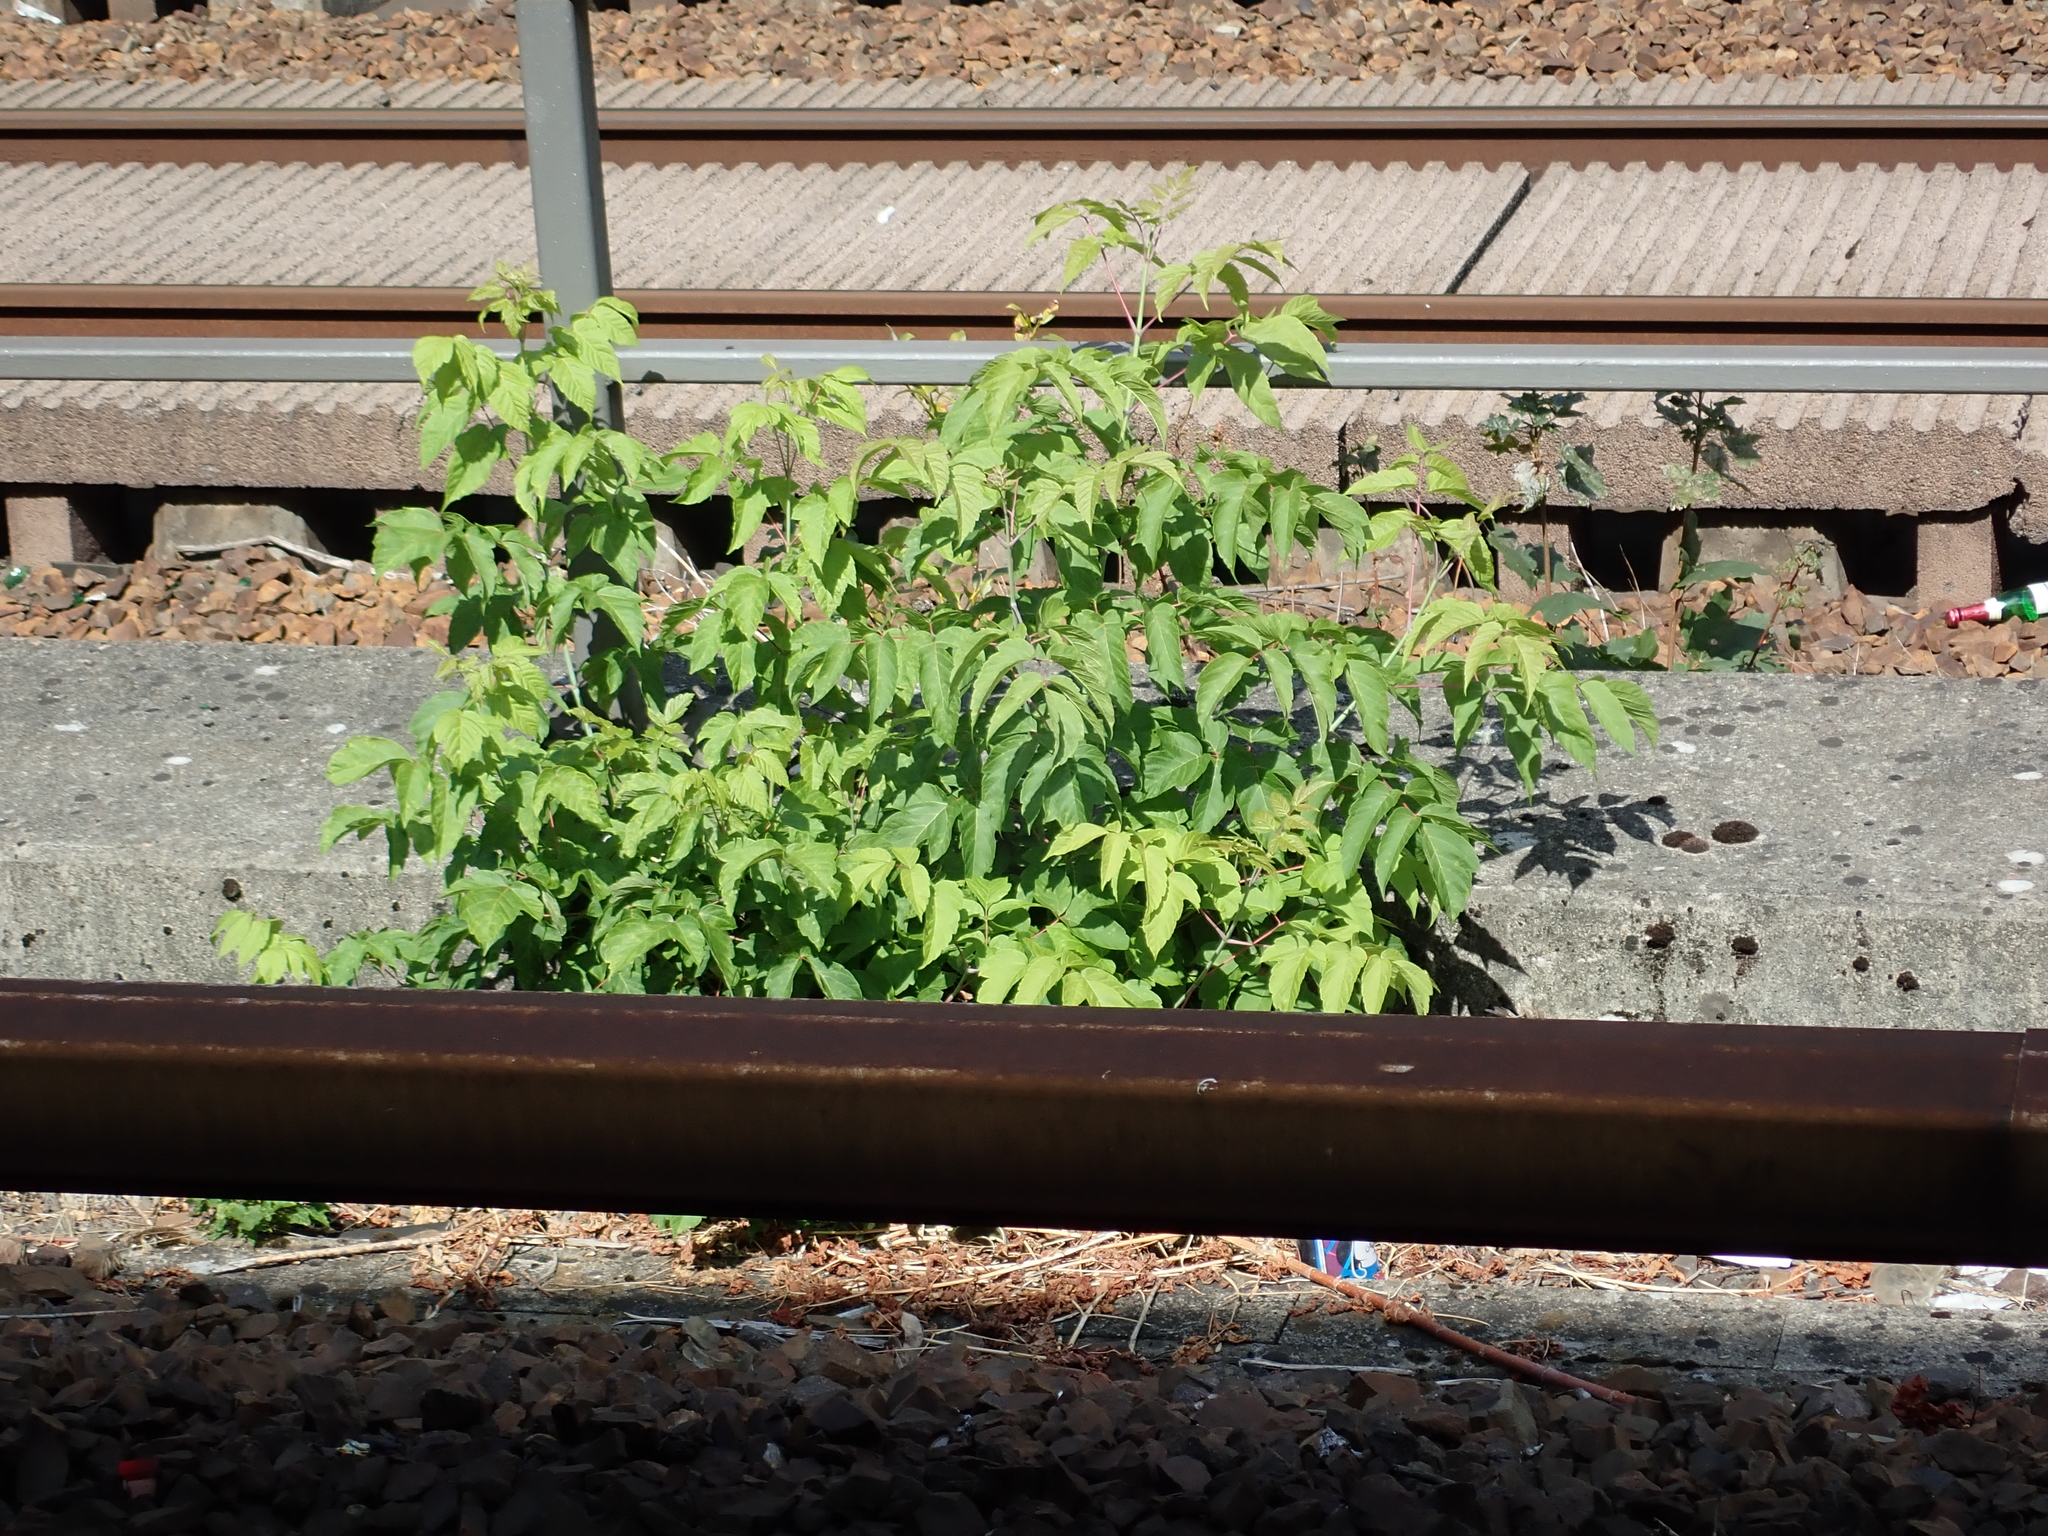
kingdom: Plantae
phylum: Tracheophyta
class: Magnoliopsida
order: Sapindales
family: Sapindaceae
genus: Acer
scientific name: Acer negundo
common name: Ashleaf maple
